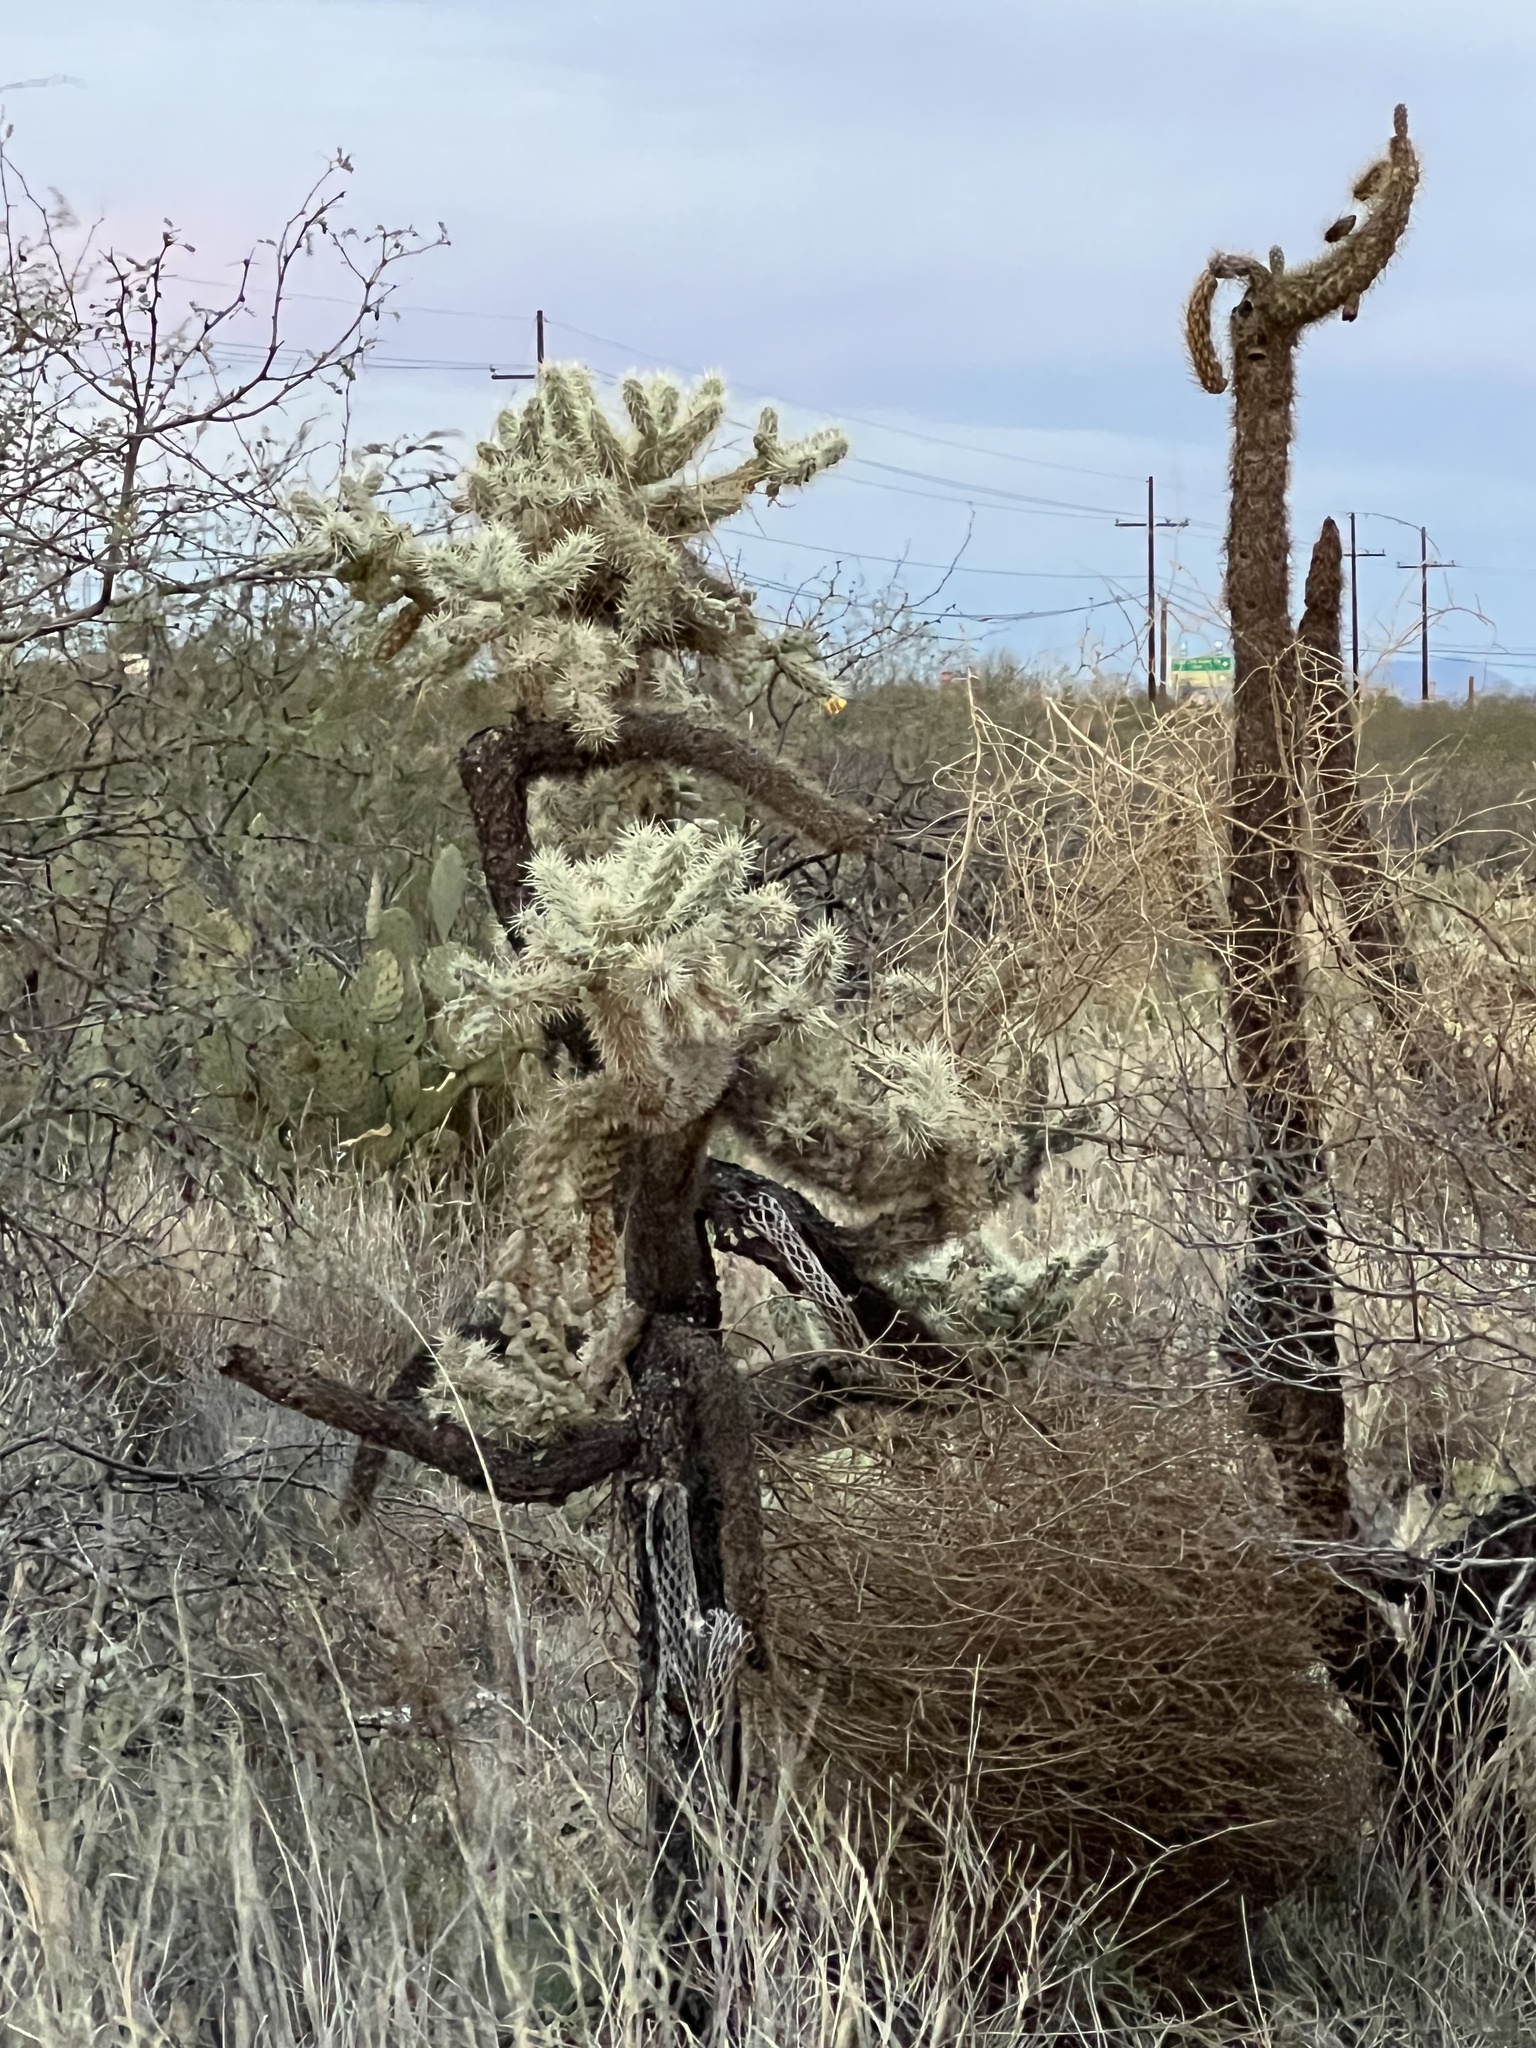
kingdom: Plantae
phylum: Tracheophyta
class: Magnoliopsida
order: Caryophyllales
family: Cactaceae
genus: Cylindropuntia
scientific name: Cylindropuntia fulgida
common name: Jumping cholla
